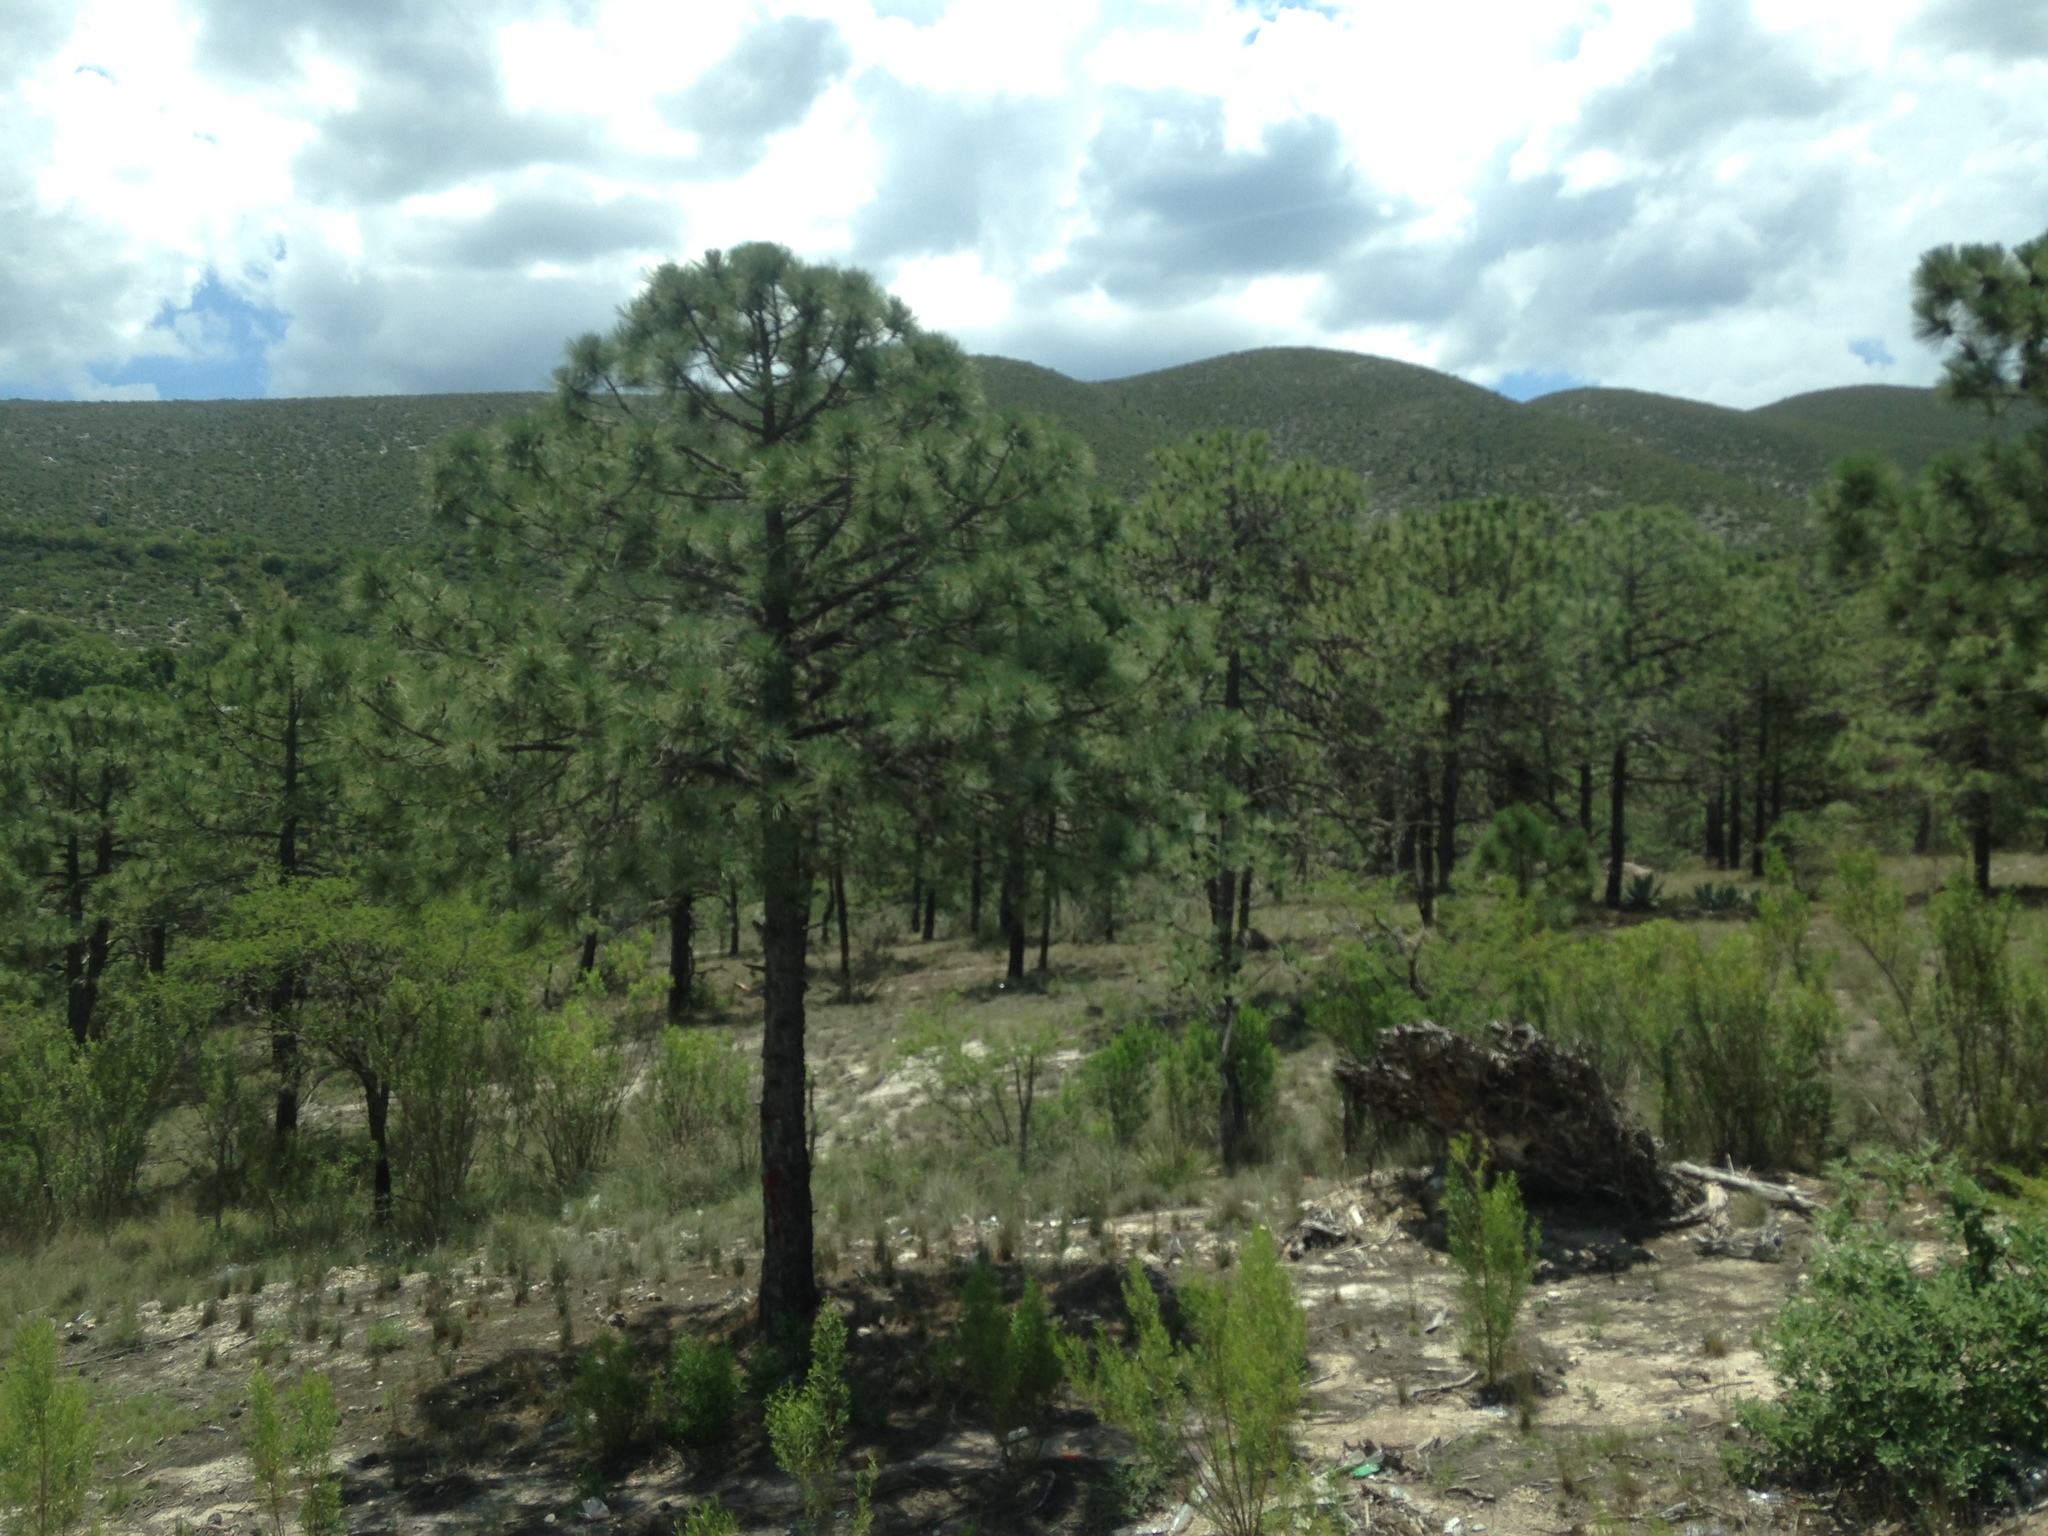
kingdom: Plantae
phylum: Tracheophyta
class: Pinopsida
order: Pinales
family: Pinaceae
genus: Pinus
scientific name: Pinus arizonica
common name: Arizona pine
